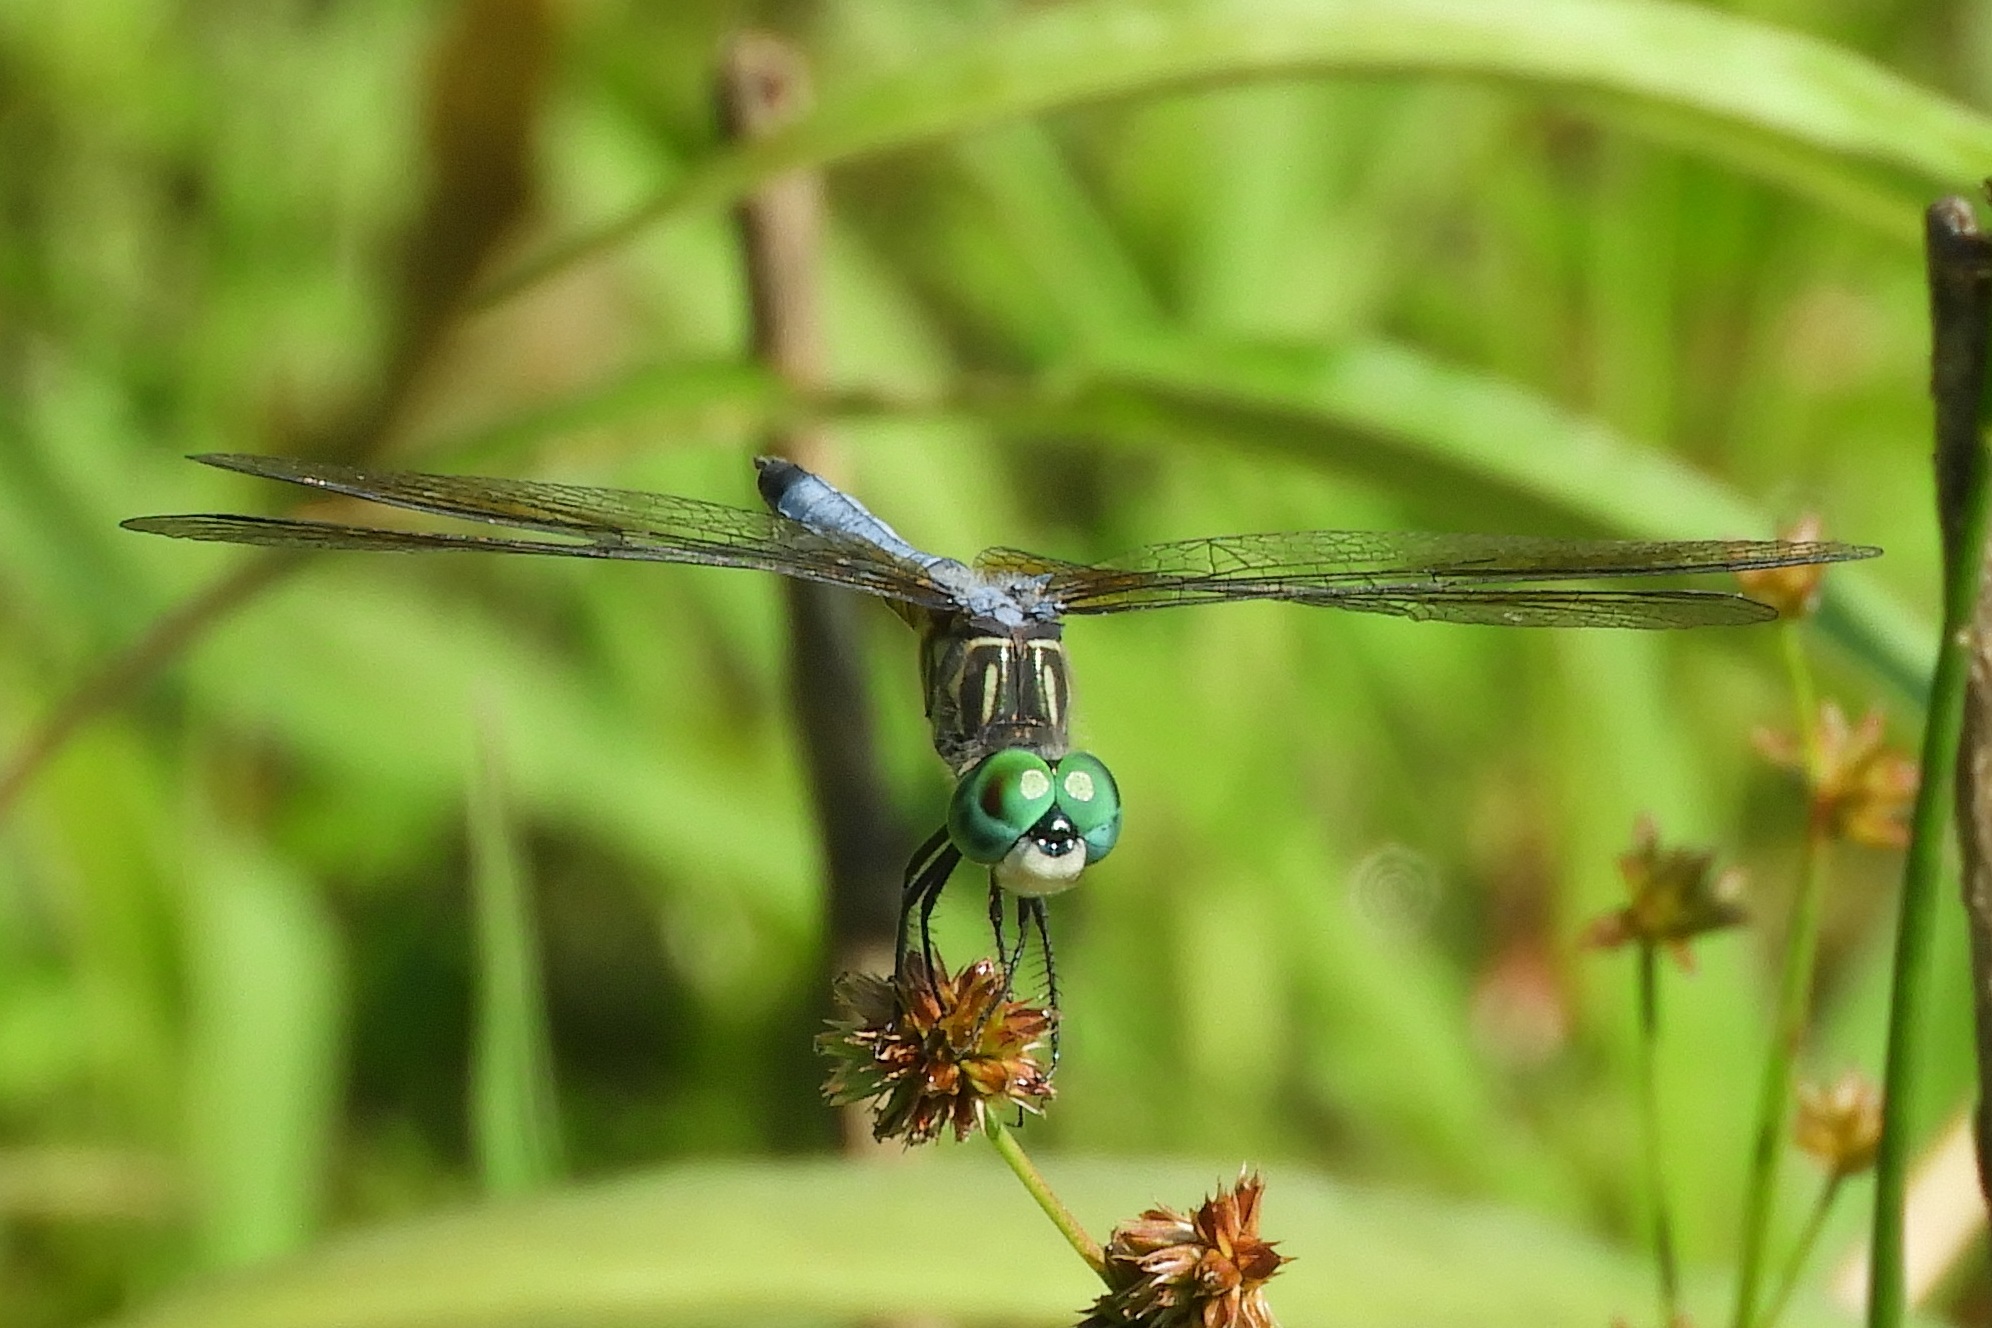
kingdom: Animalia
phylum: Arthropoda
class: Insecta
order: Odonata
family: Libellulidae
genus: Pachydiplax
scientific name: Pachydiplax longipennis
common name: Blue dasher
